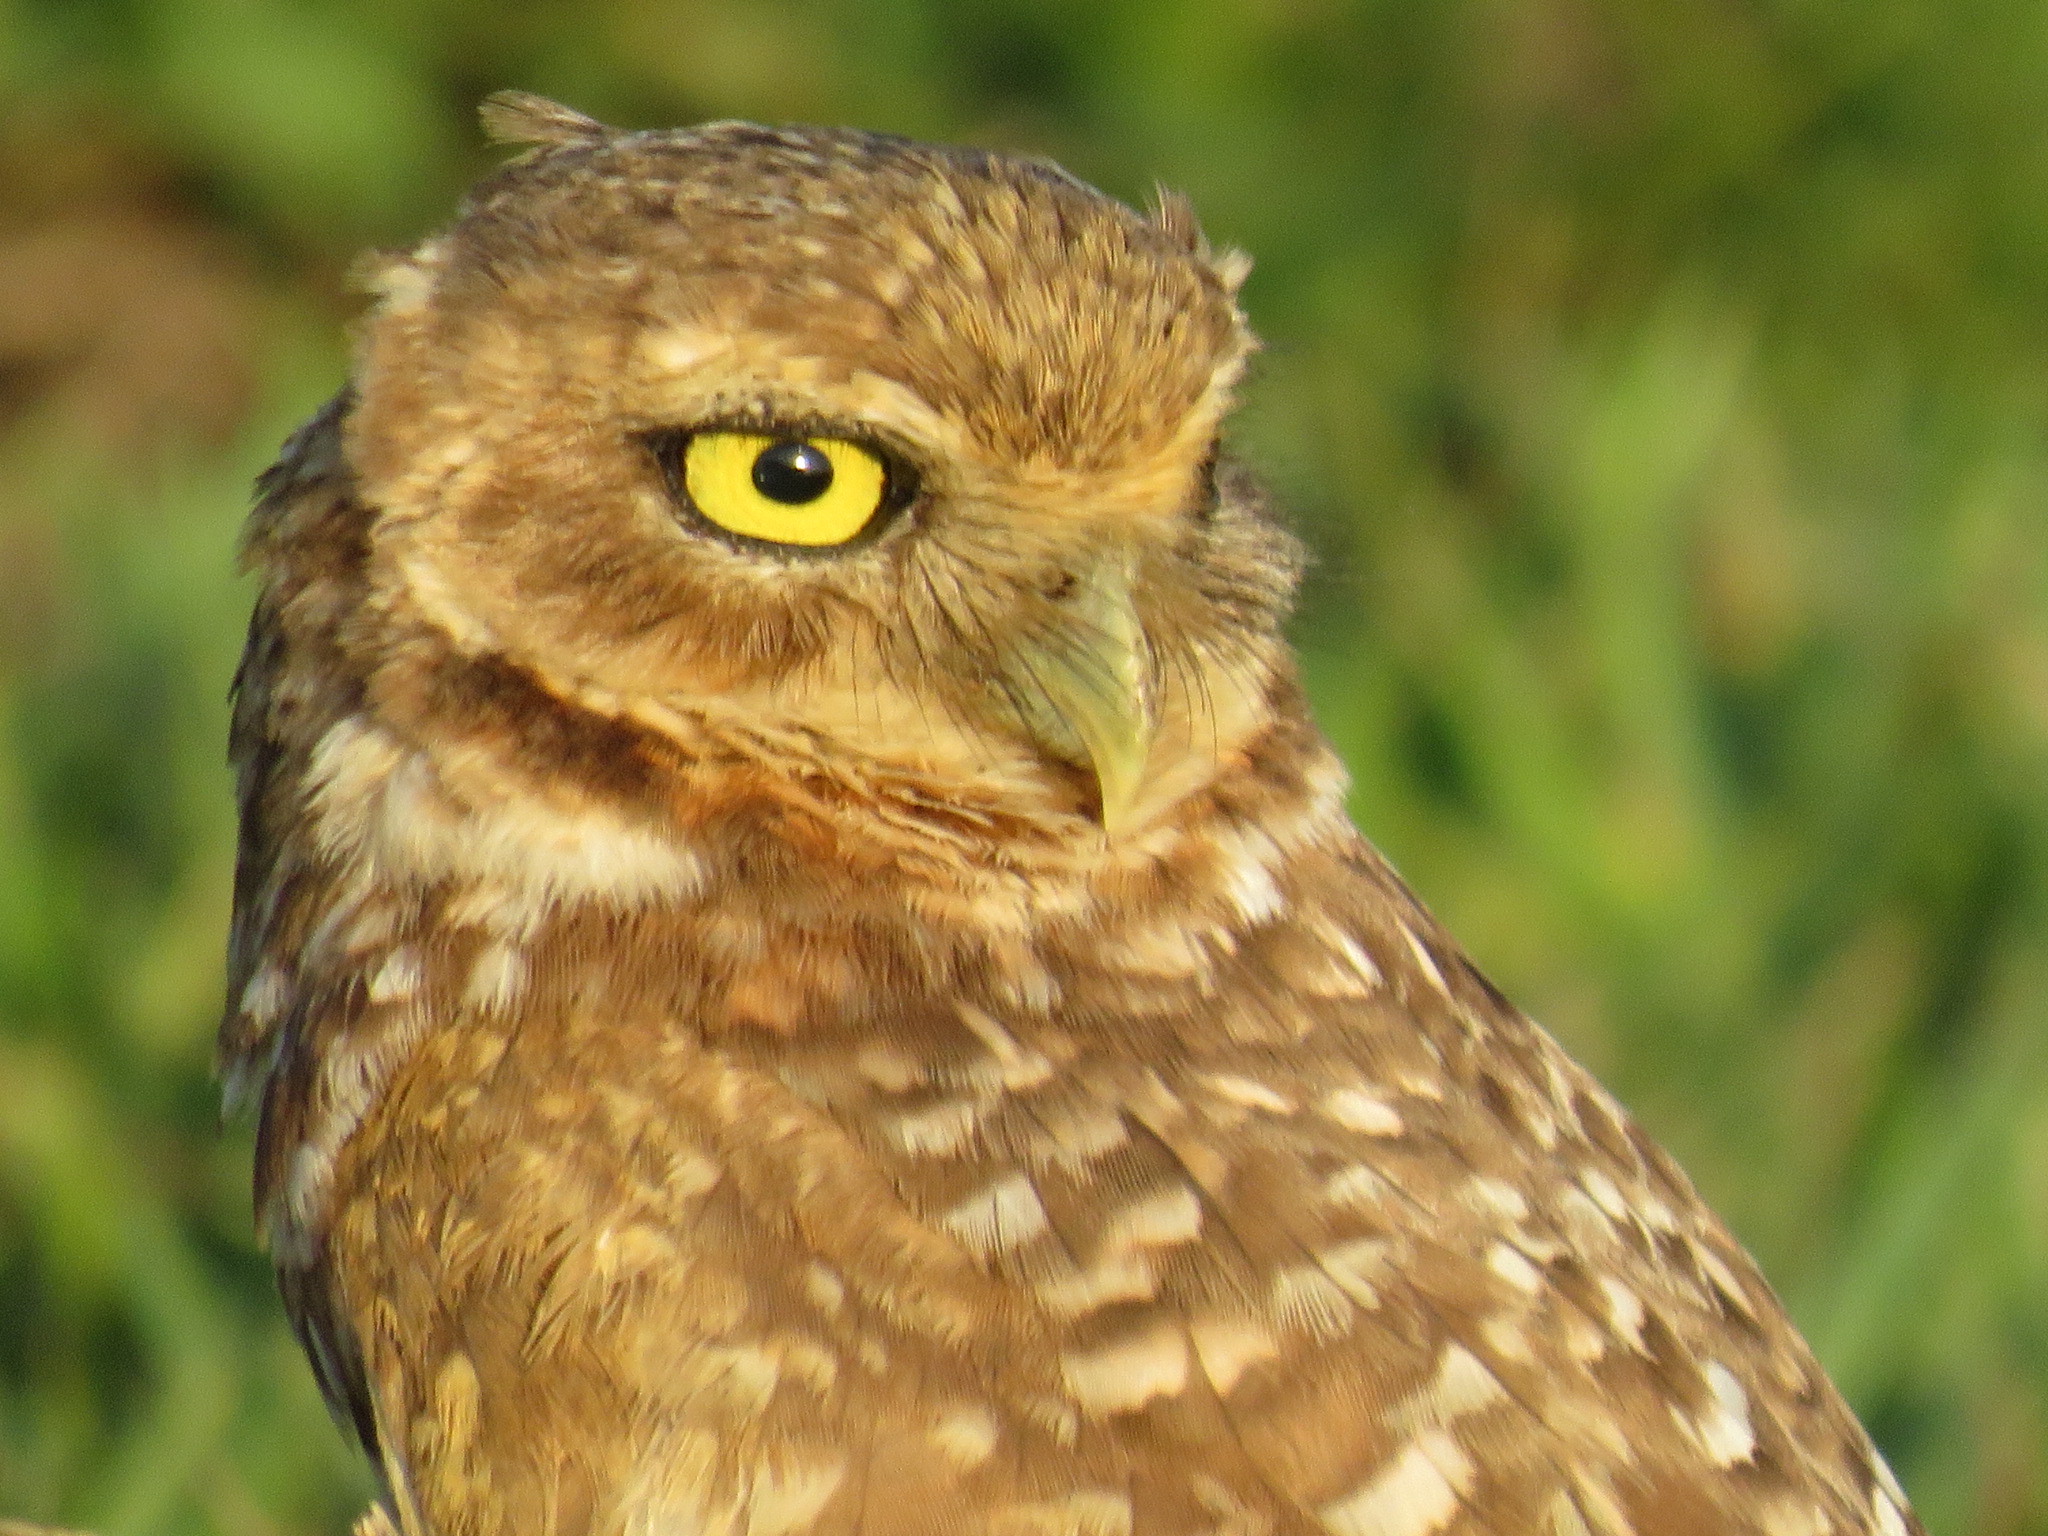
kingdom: Animalia
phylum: Chordata
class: Aves
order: Strigiformes
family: Strigidae
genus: Athene
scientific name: Athene cunicularia
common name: Burrowing owl
